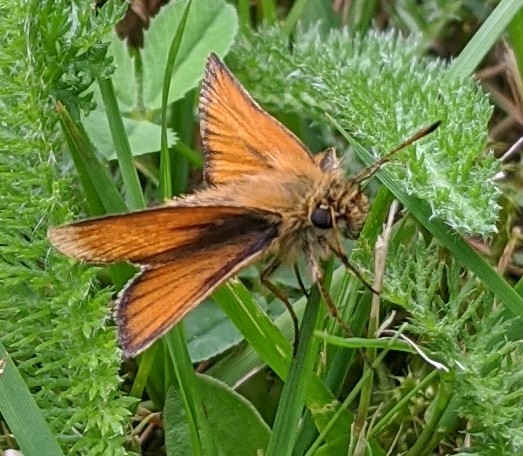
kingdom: Animalia
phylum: Arthropoda
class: Insecta
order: Lepidoptera
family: Hesperiidae
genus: Thymelicus
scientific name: Thymelicus lineola
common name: Essex skipper
